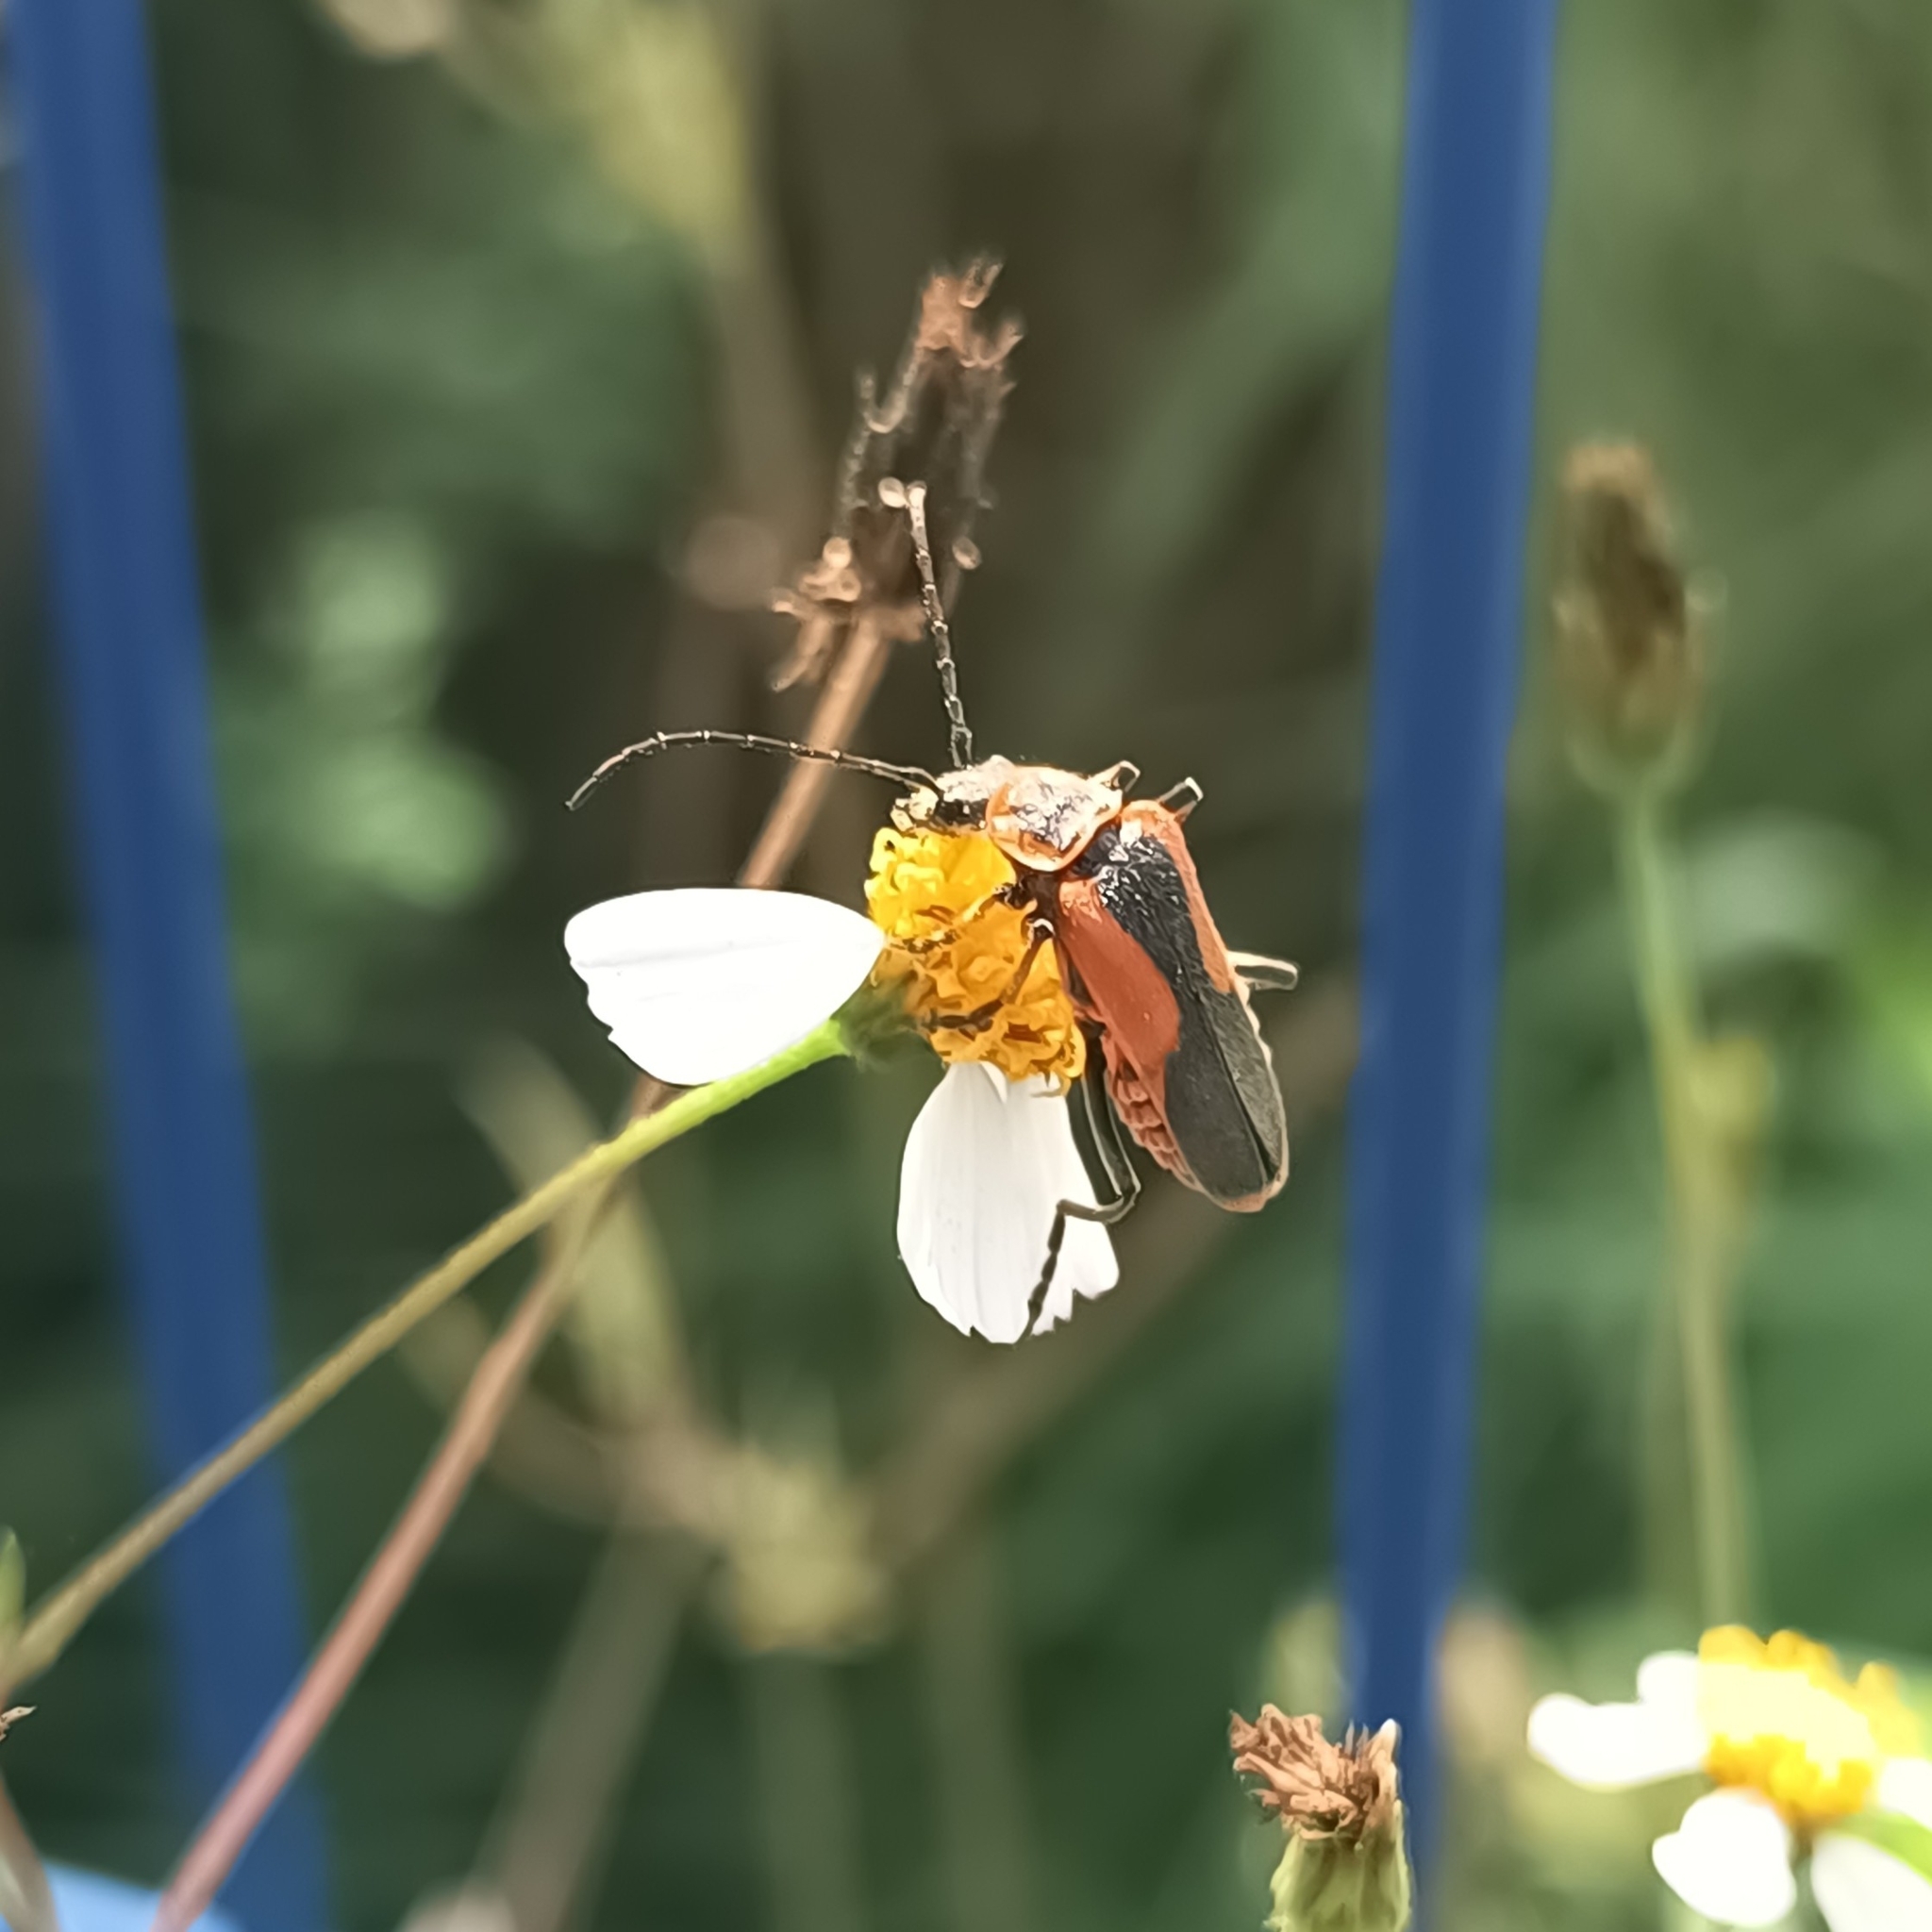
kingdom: Animalia
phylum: Arthropoda
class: Insecta
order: Coleoptera
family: Cantharidae
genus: Chauliognathus
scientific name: Chauliognathus limbicollis
